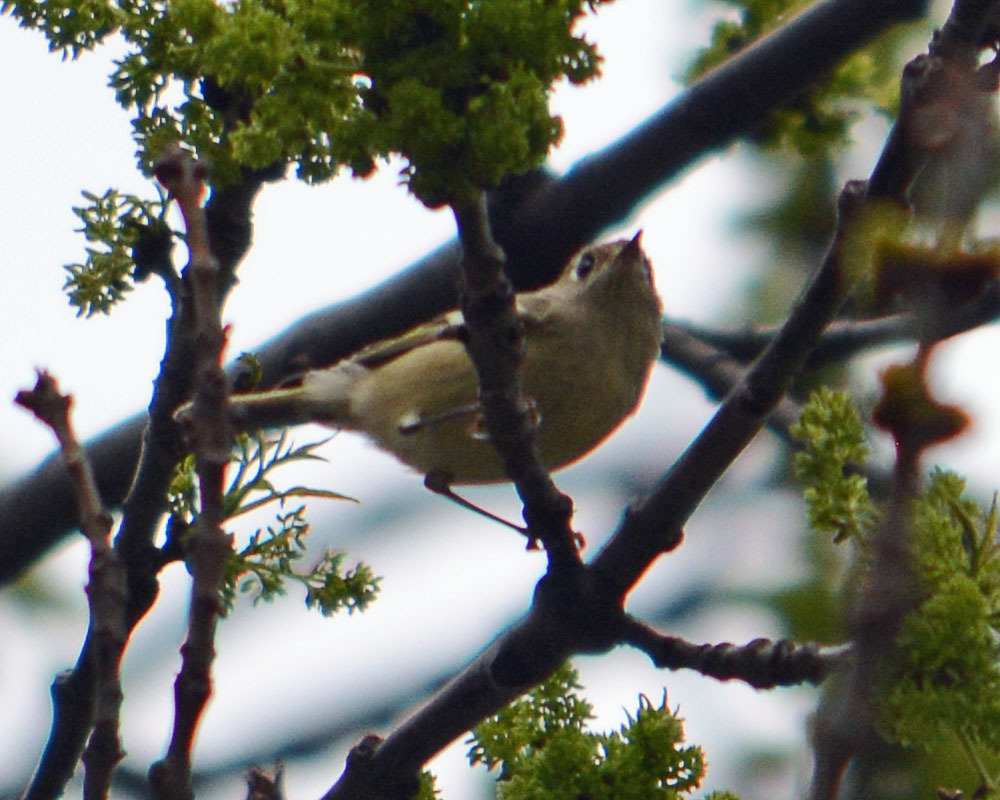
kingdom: Animalia
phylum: Chordata
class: Aves
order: Passeriformes
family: Regulidae
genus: Regulus
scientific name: Regulus calendula
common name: Ruby-crowned kinglet
